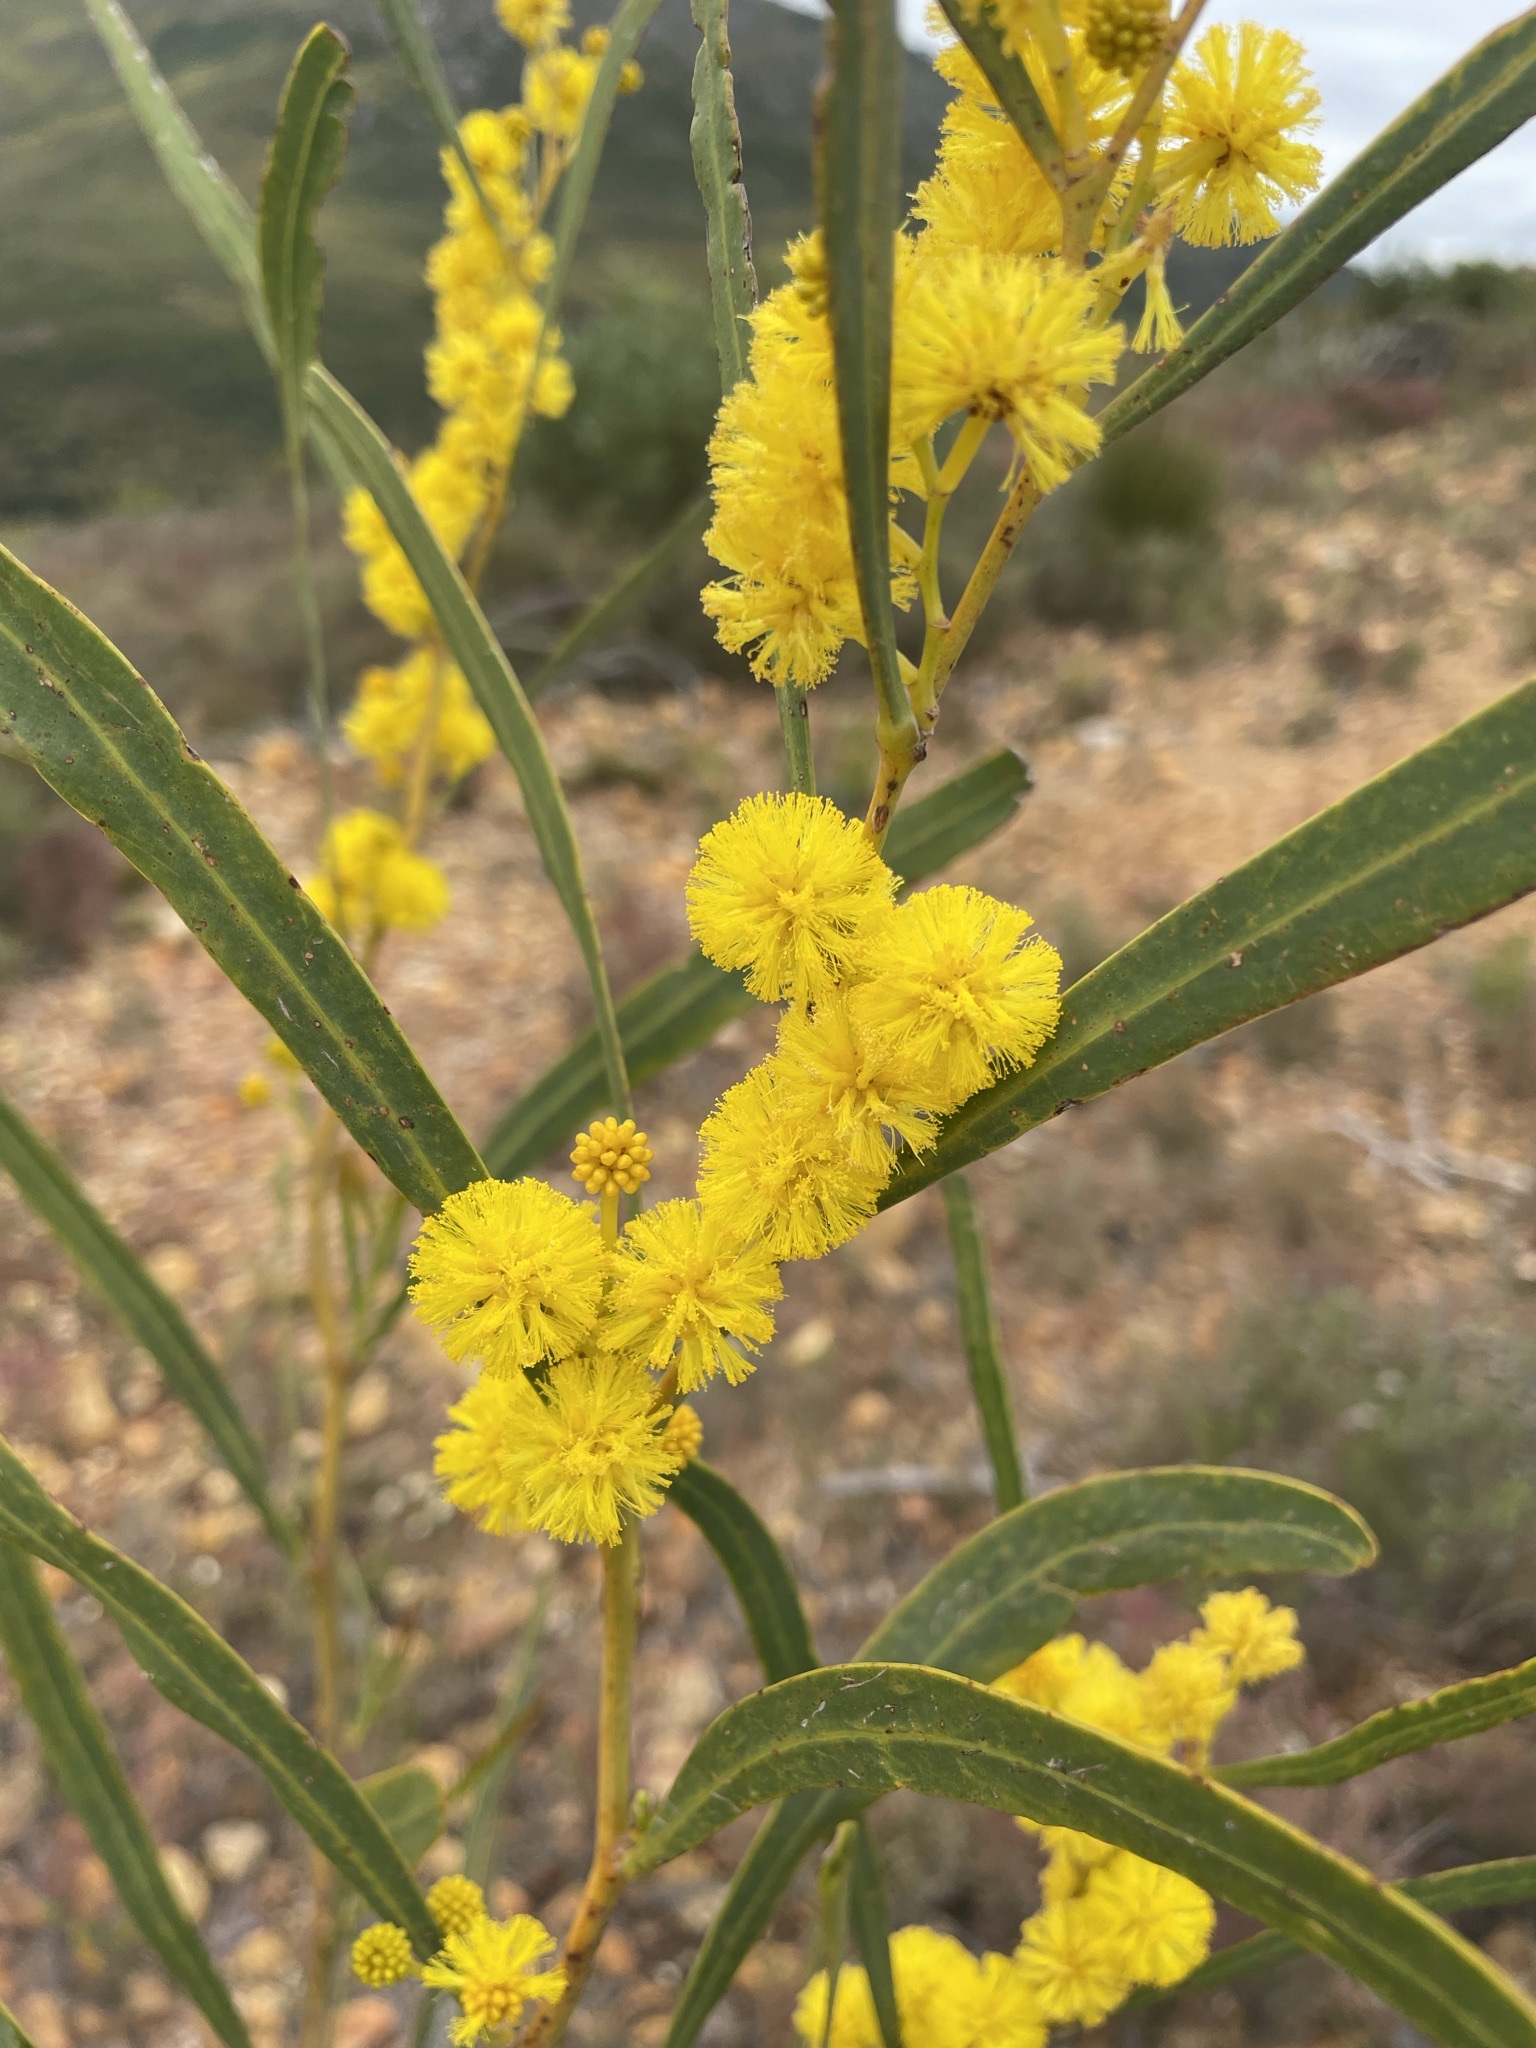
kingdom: Plantae
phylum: Tracheophyta
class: Magnoliopsida
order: Fabales
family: Fabaceae
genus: Acacia
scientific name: Acacia saligna
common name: Orange wattle
